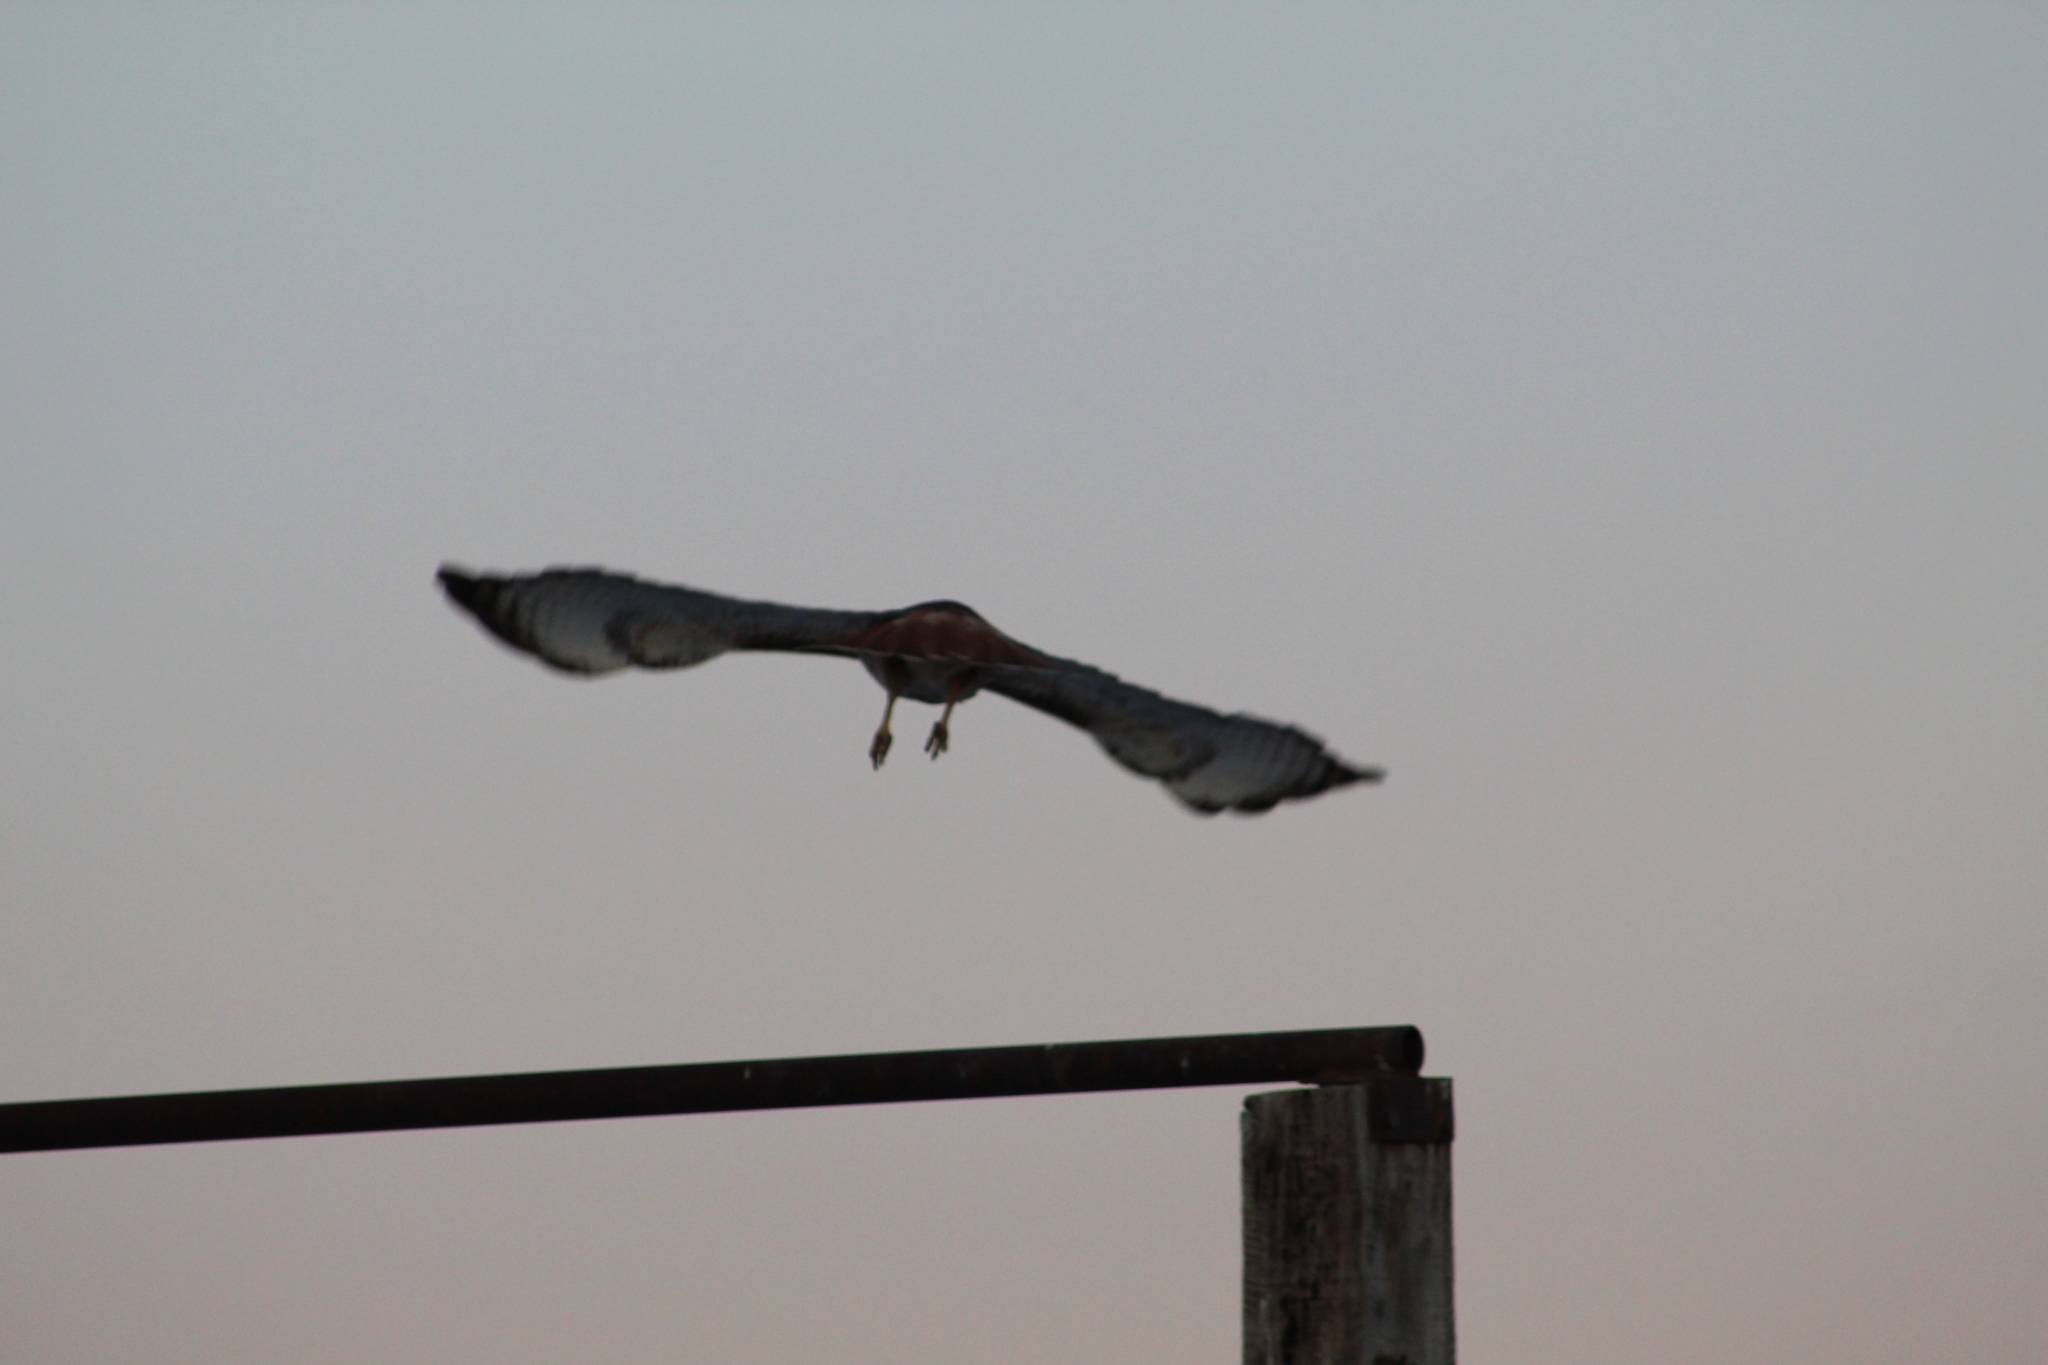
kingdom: Animalia
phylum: Chordata
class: Aves
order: Accipitriformes
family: Accipitridae
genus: Buteo
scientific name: Buteo jamaicensis
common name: Red-tailed hawk
